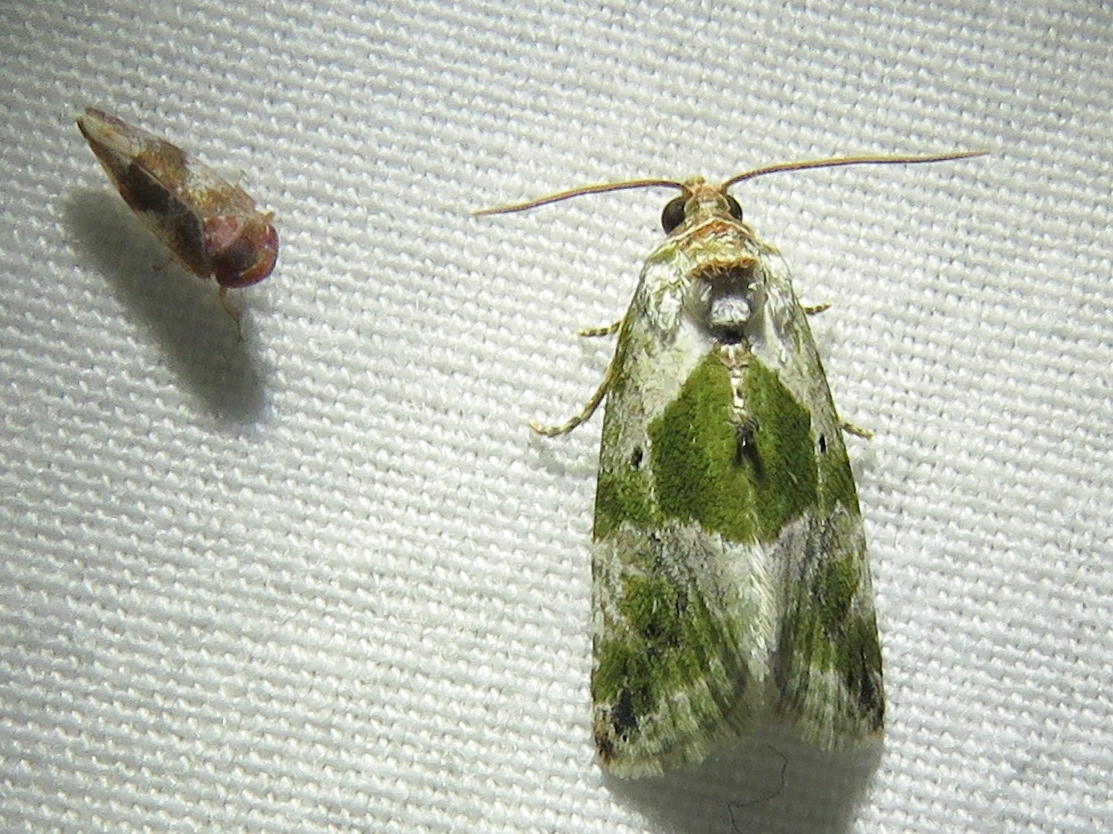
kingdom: Animalia
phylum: Arthropoda
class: Insecta
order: Lepidoptera
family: Noctuidae
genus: Maliattha
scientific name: Maliattha synochitis
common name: Black-dotted glyph
